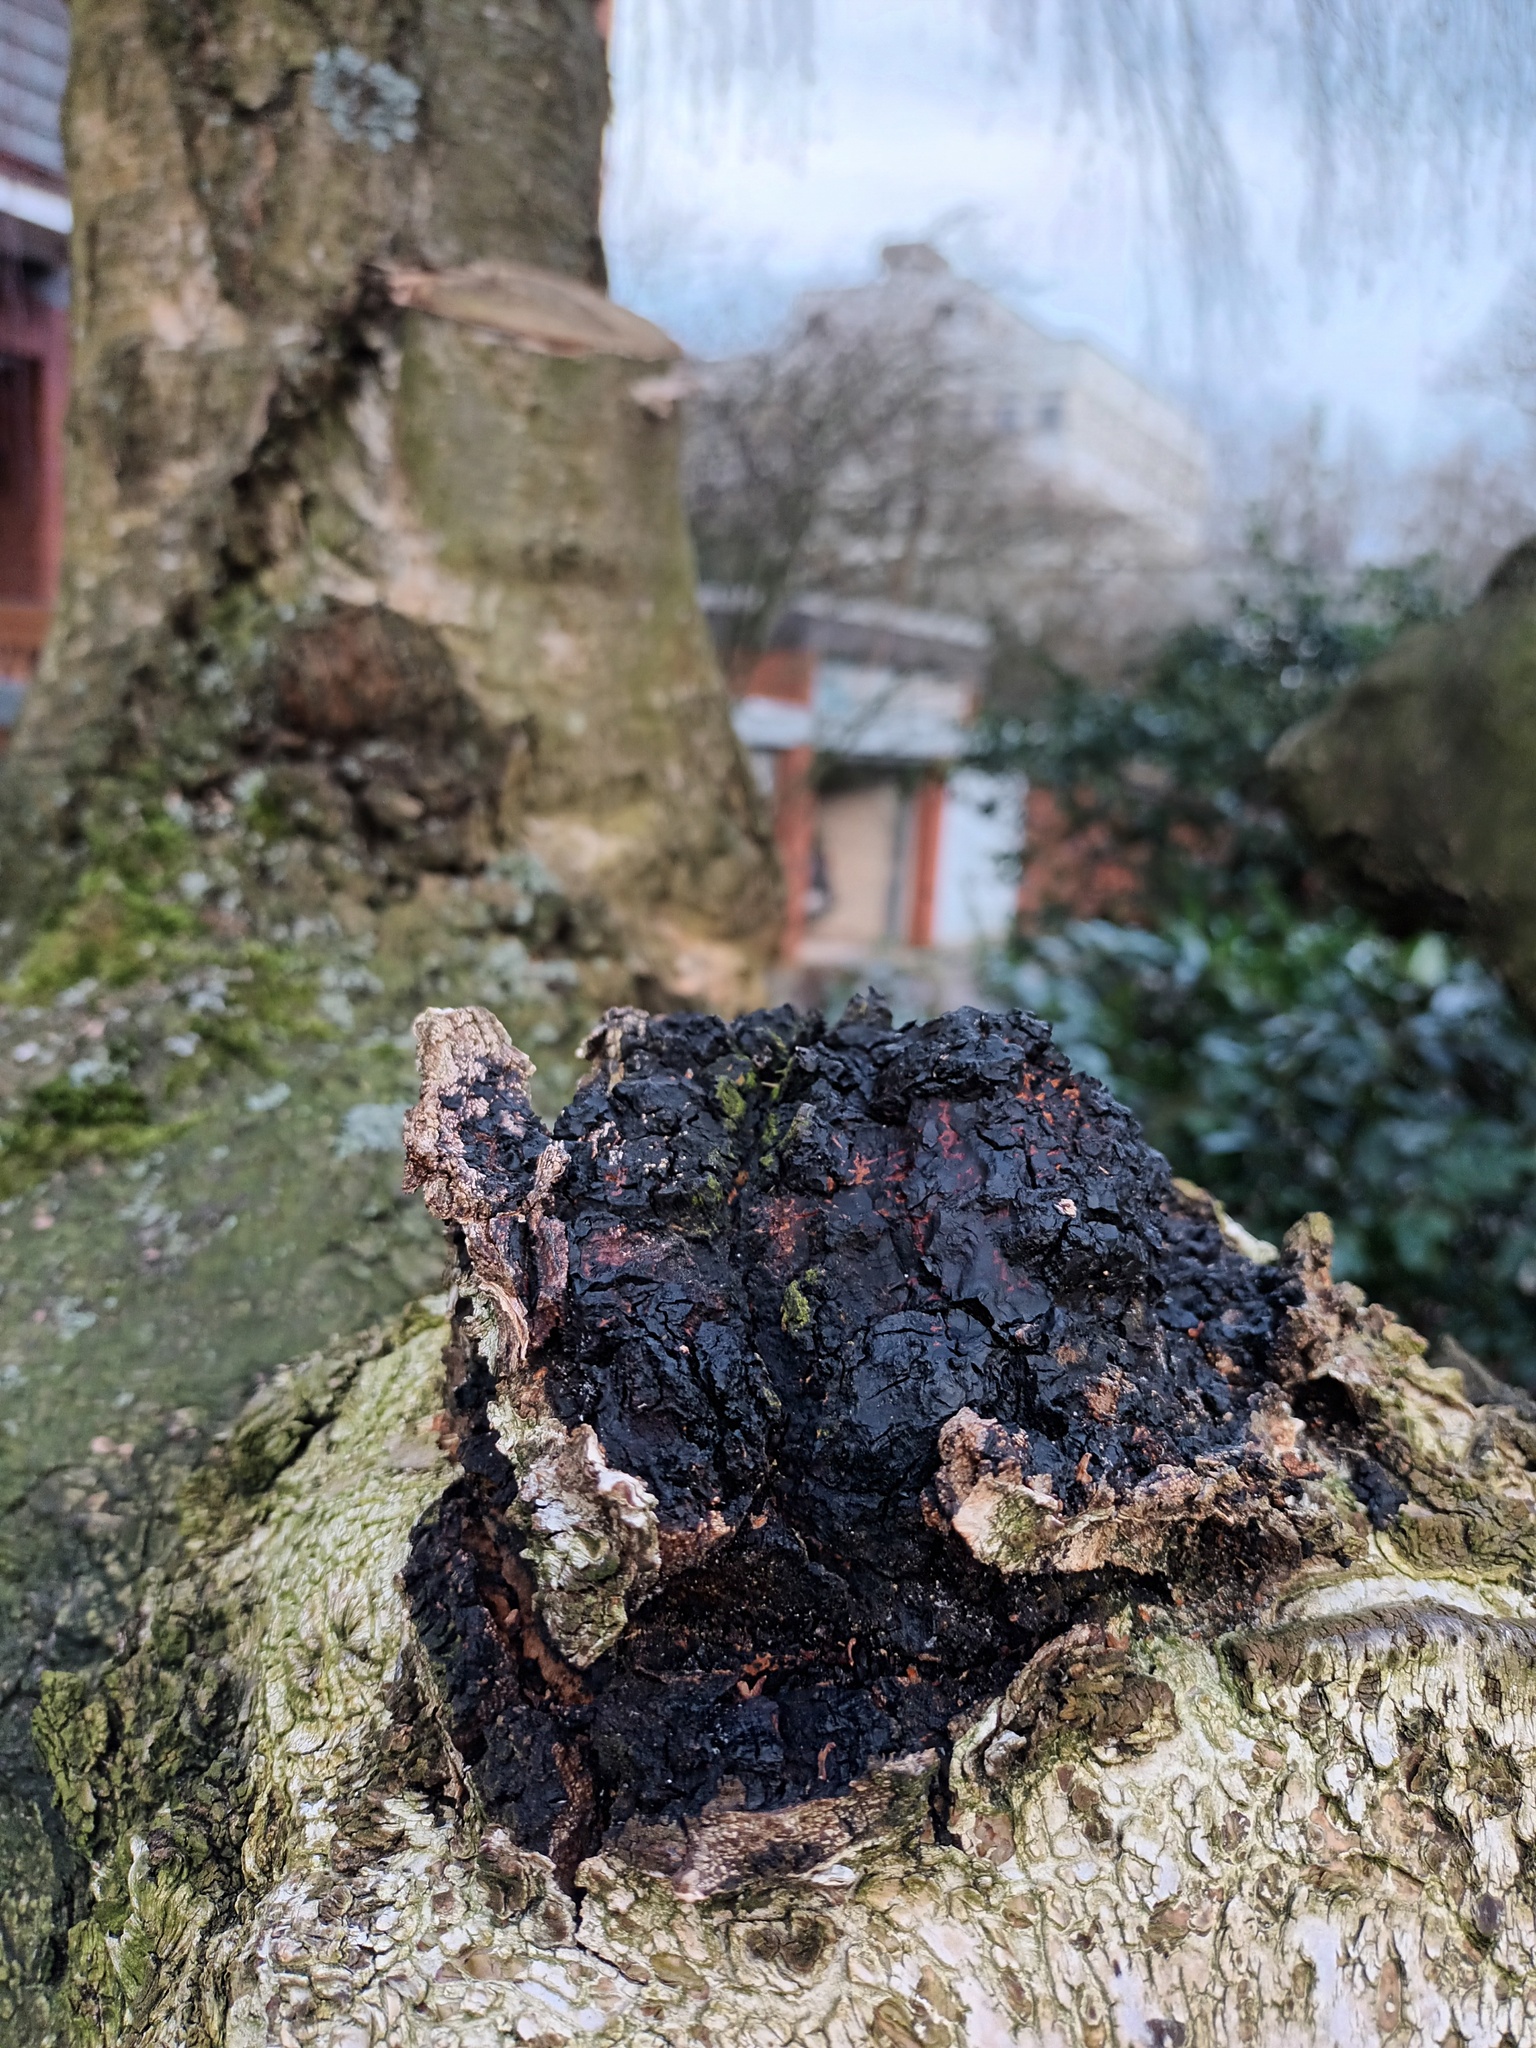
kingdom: Fungi
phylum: Basidiomycota
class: Agaricomycetes
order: Hymenochaetales
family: Hymenochaetaceae
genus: Inonotus
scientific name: Inonotus obliquus
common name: Chaga
